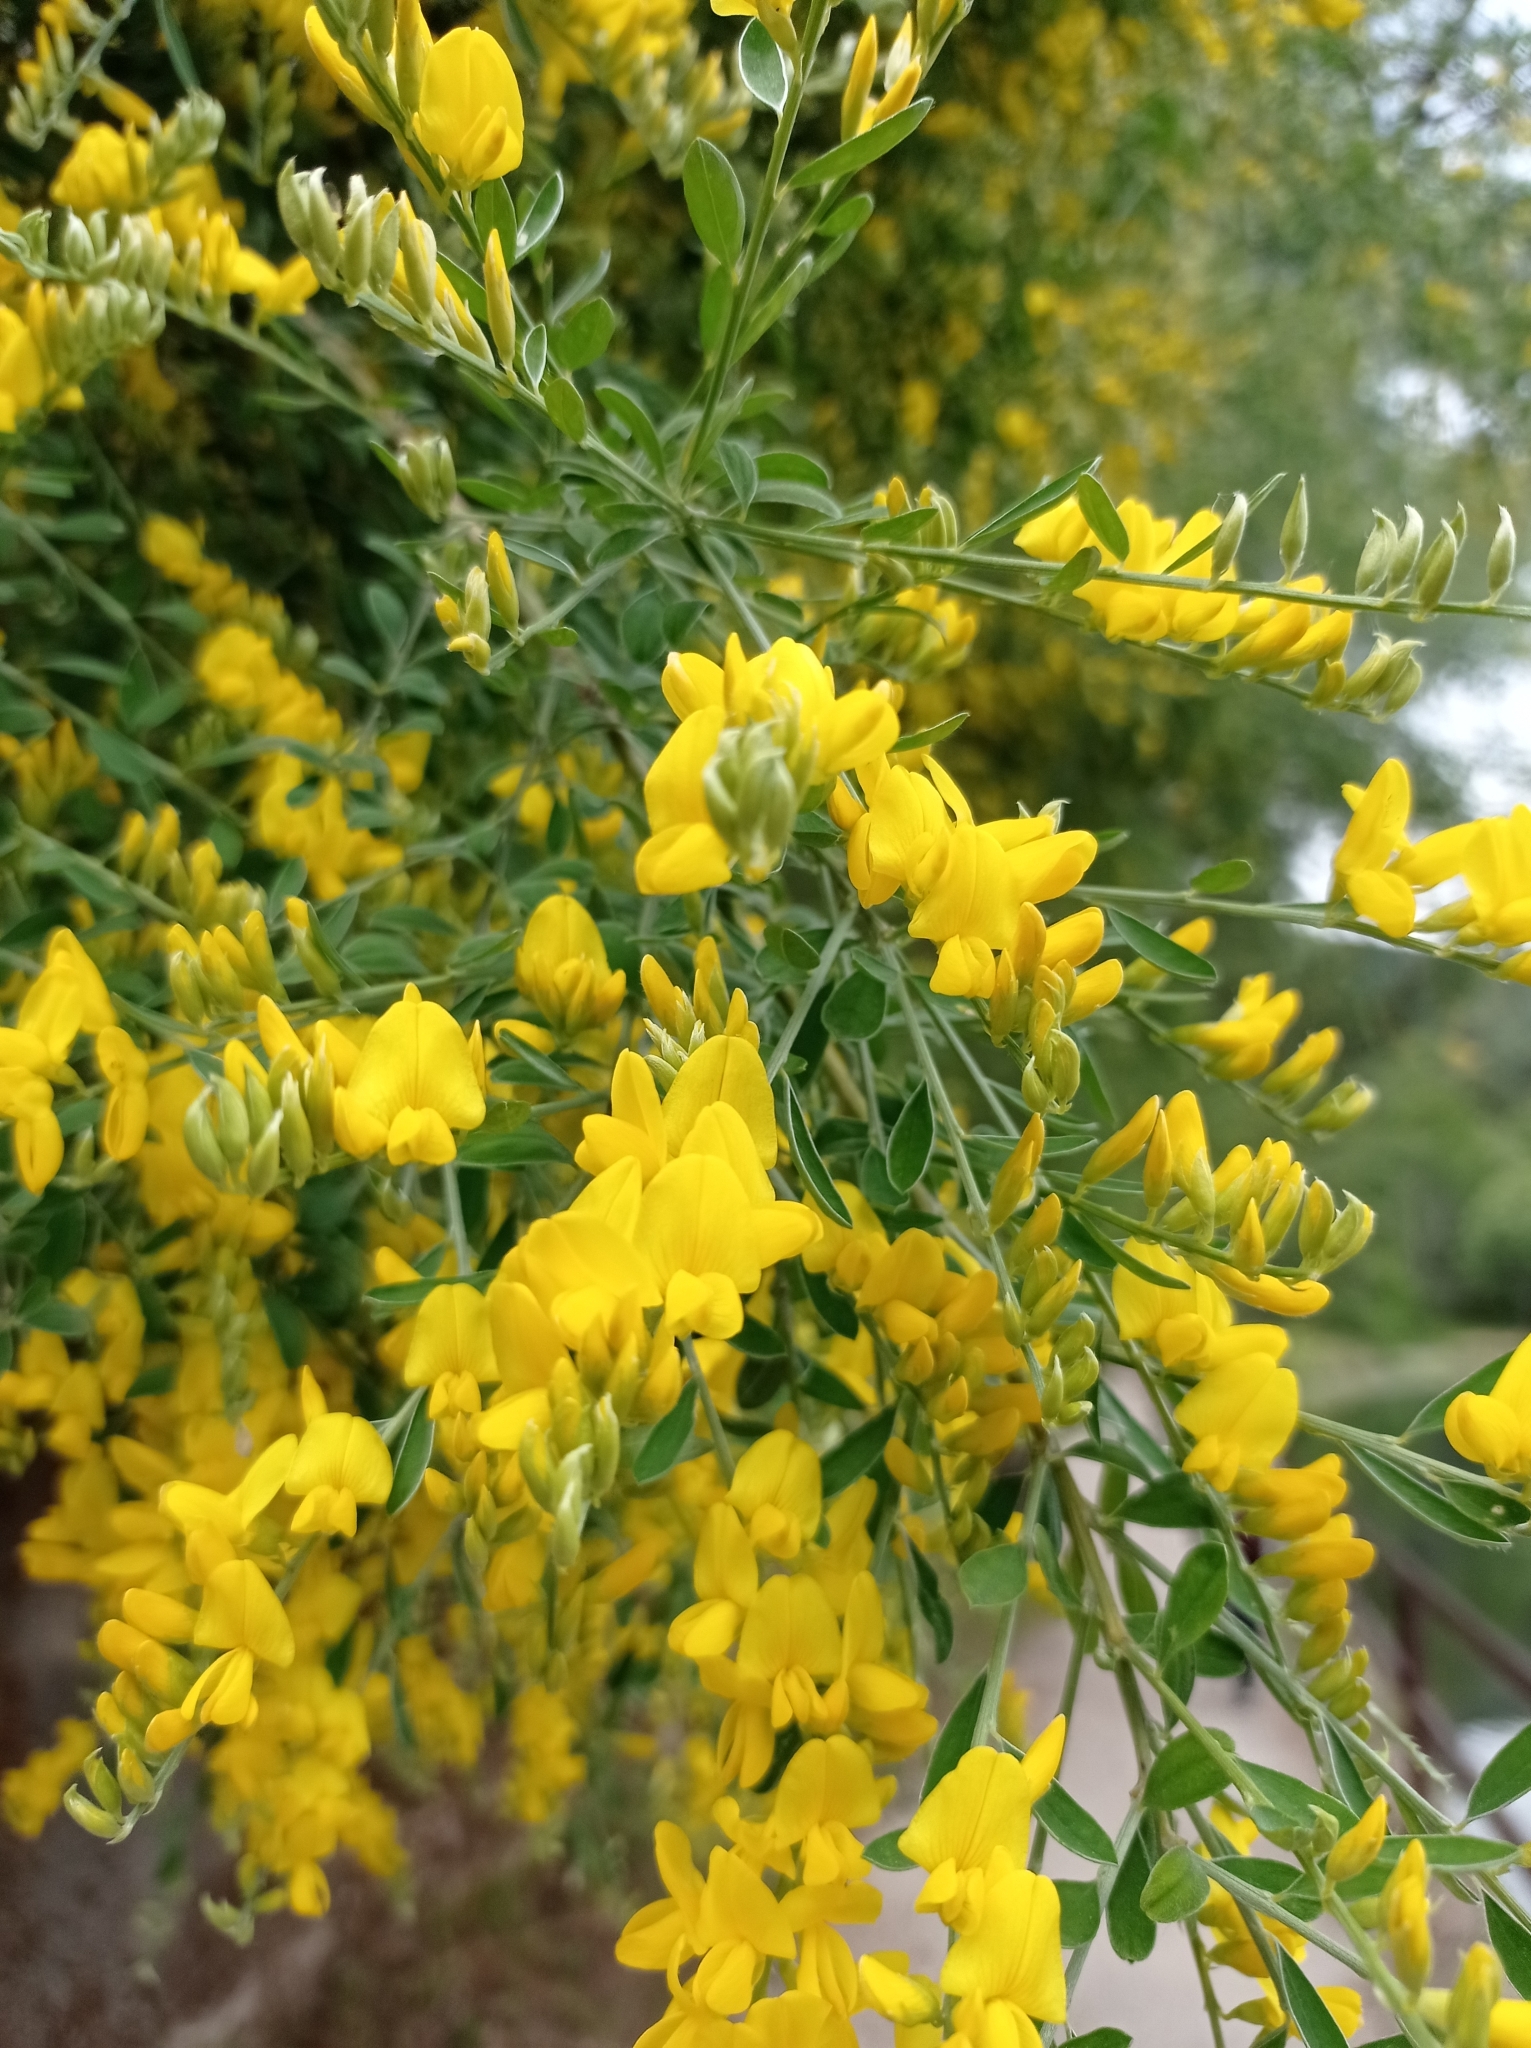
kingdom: Plantae
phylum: Tracheophyta
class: Magnoliopsida
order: Fabales
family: Fabaceae
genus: Genista
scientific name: Genista florida
